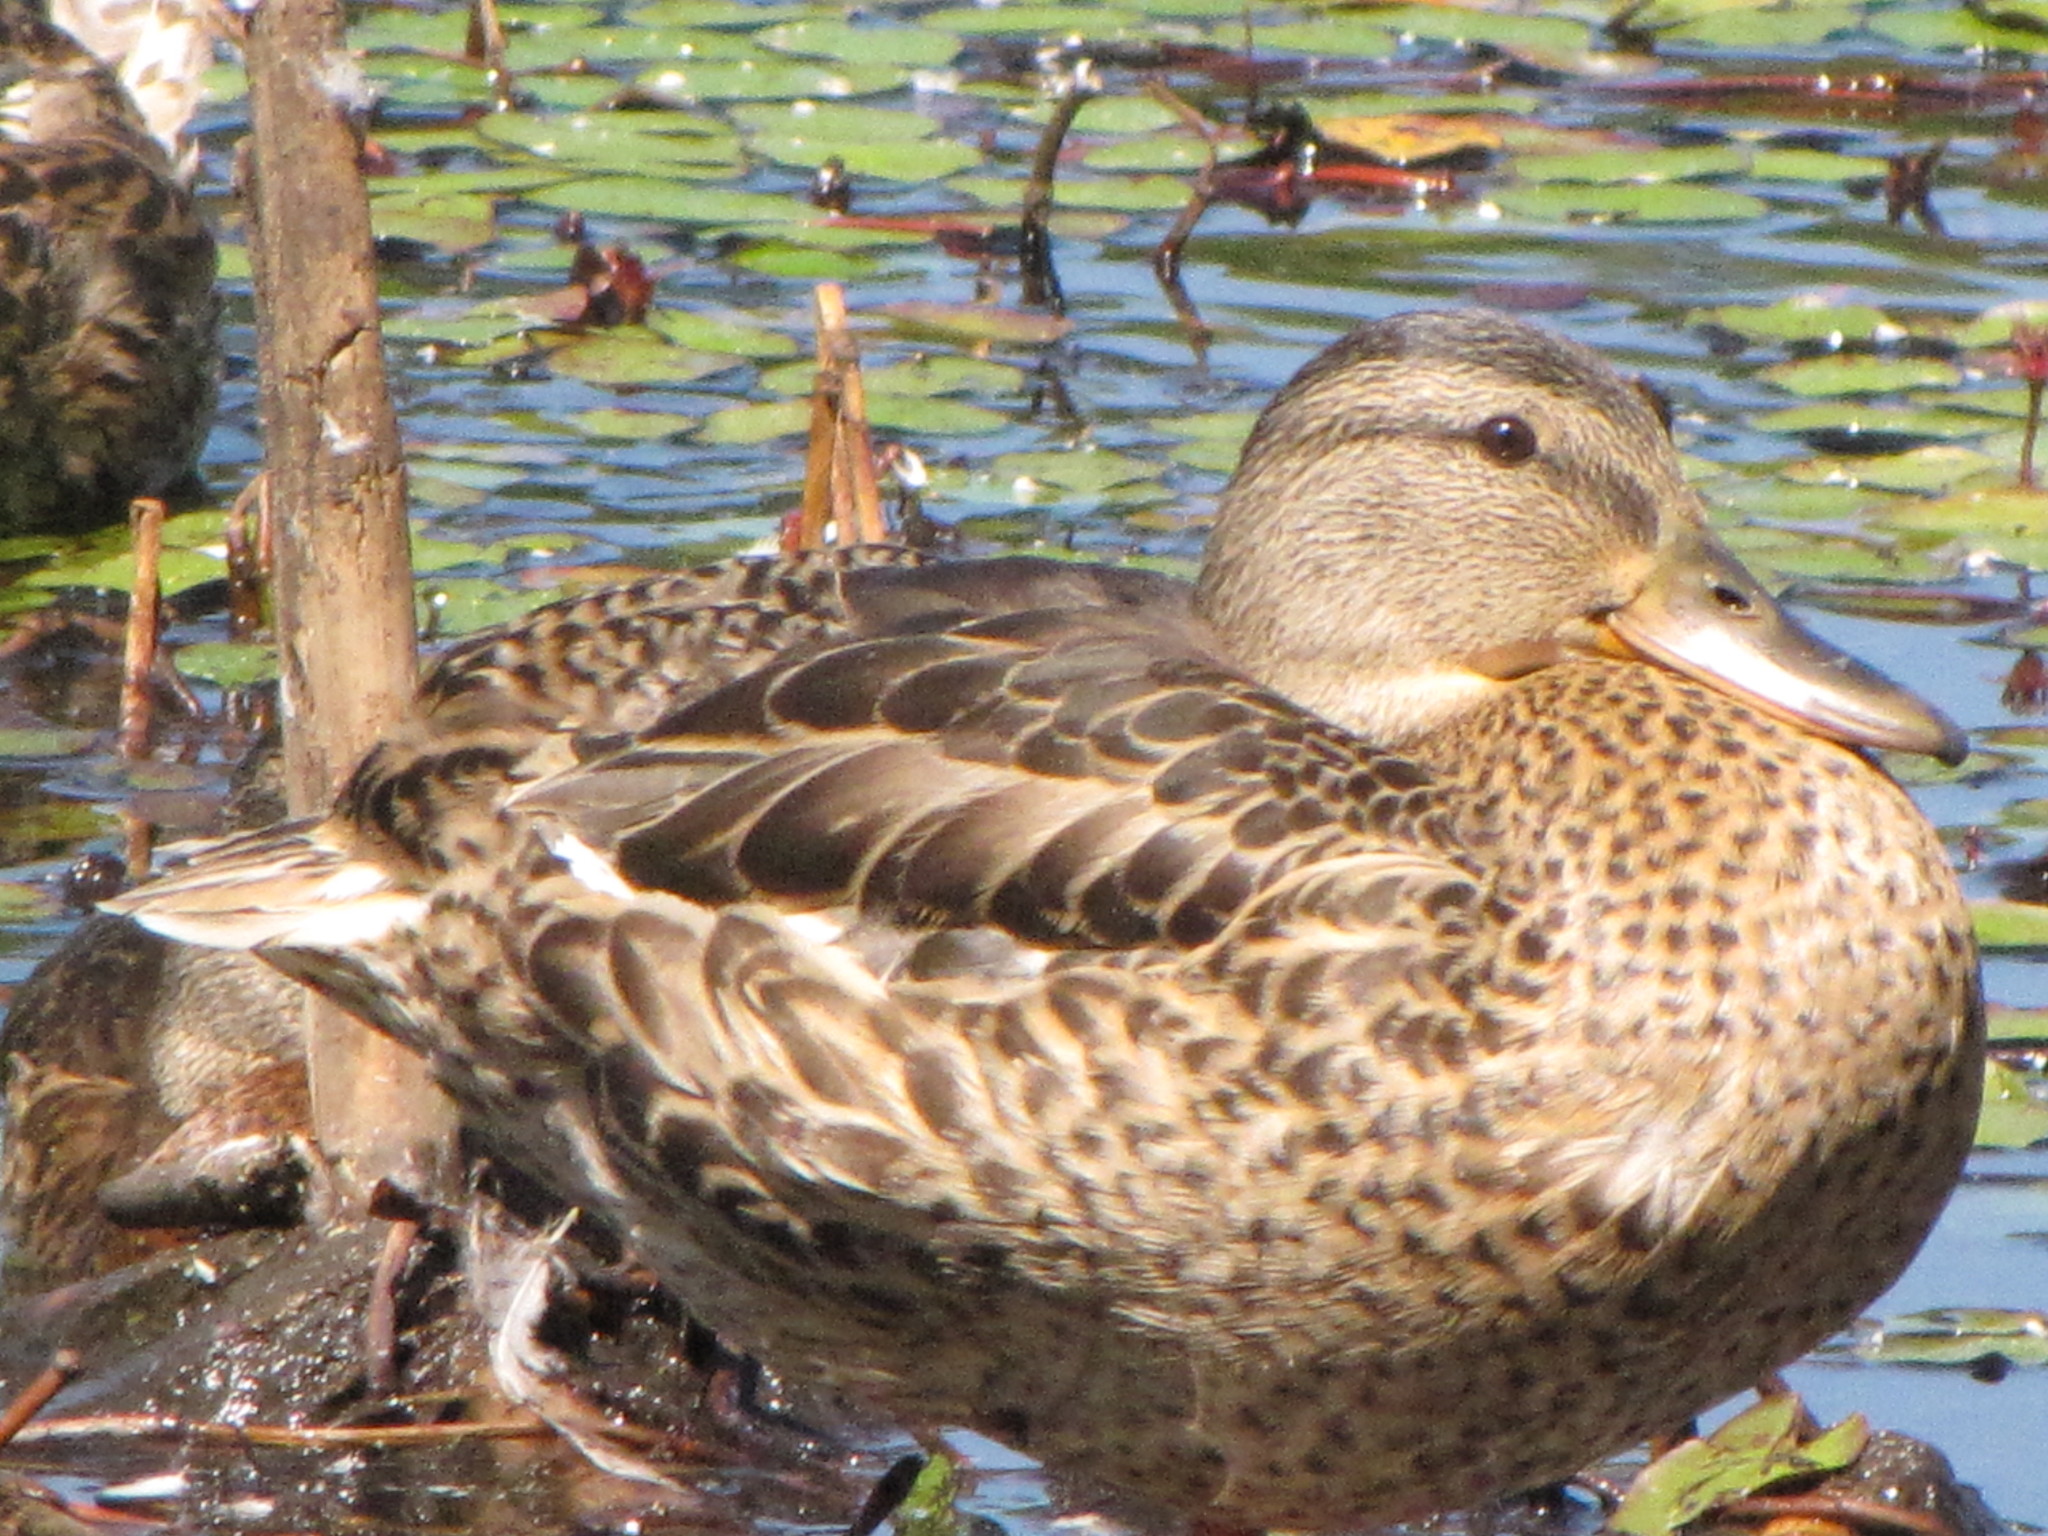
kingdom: Animalia
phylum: Chordata
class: Aves
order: Anseriformes
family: Anatidae
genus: Anas
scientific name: Anas platyrhynchos
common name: Mallard
